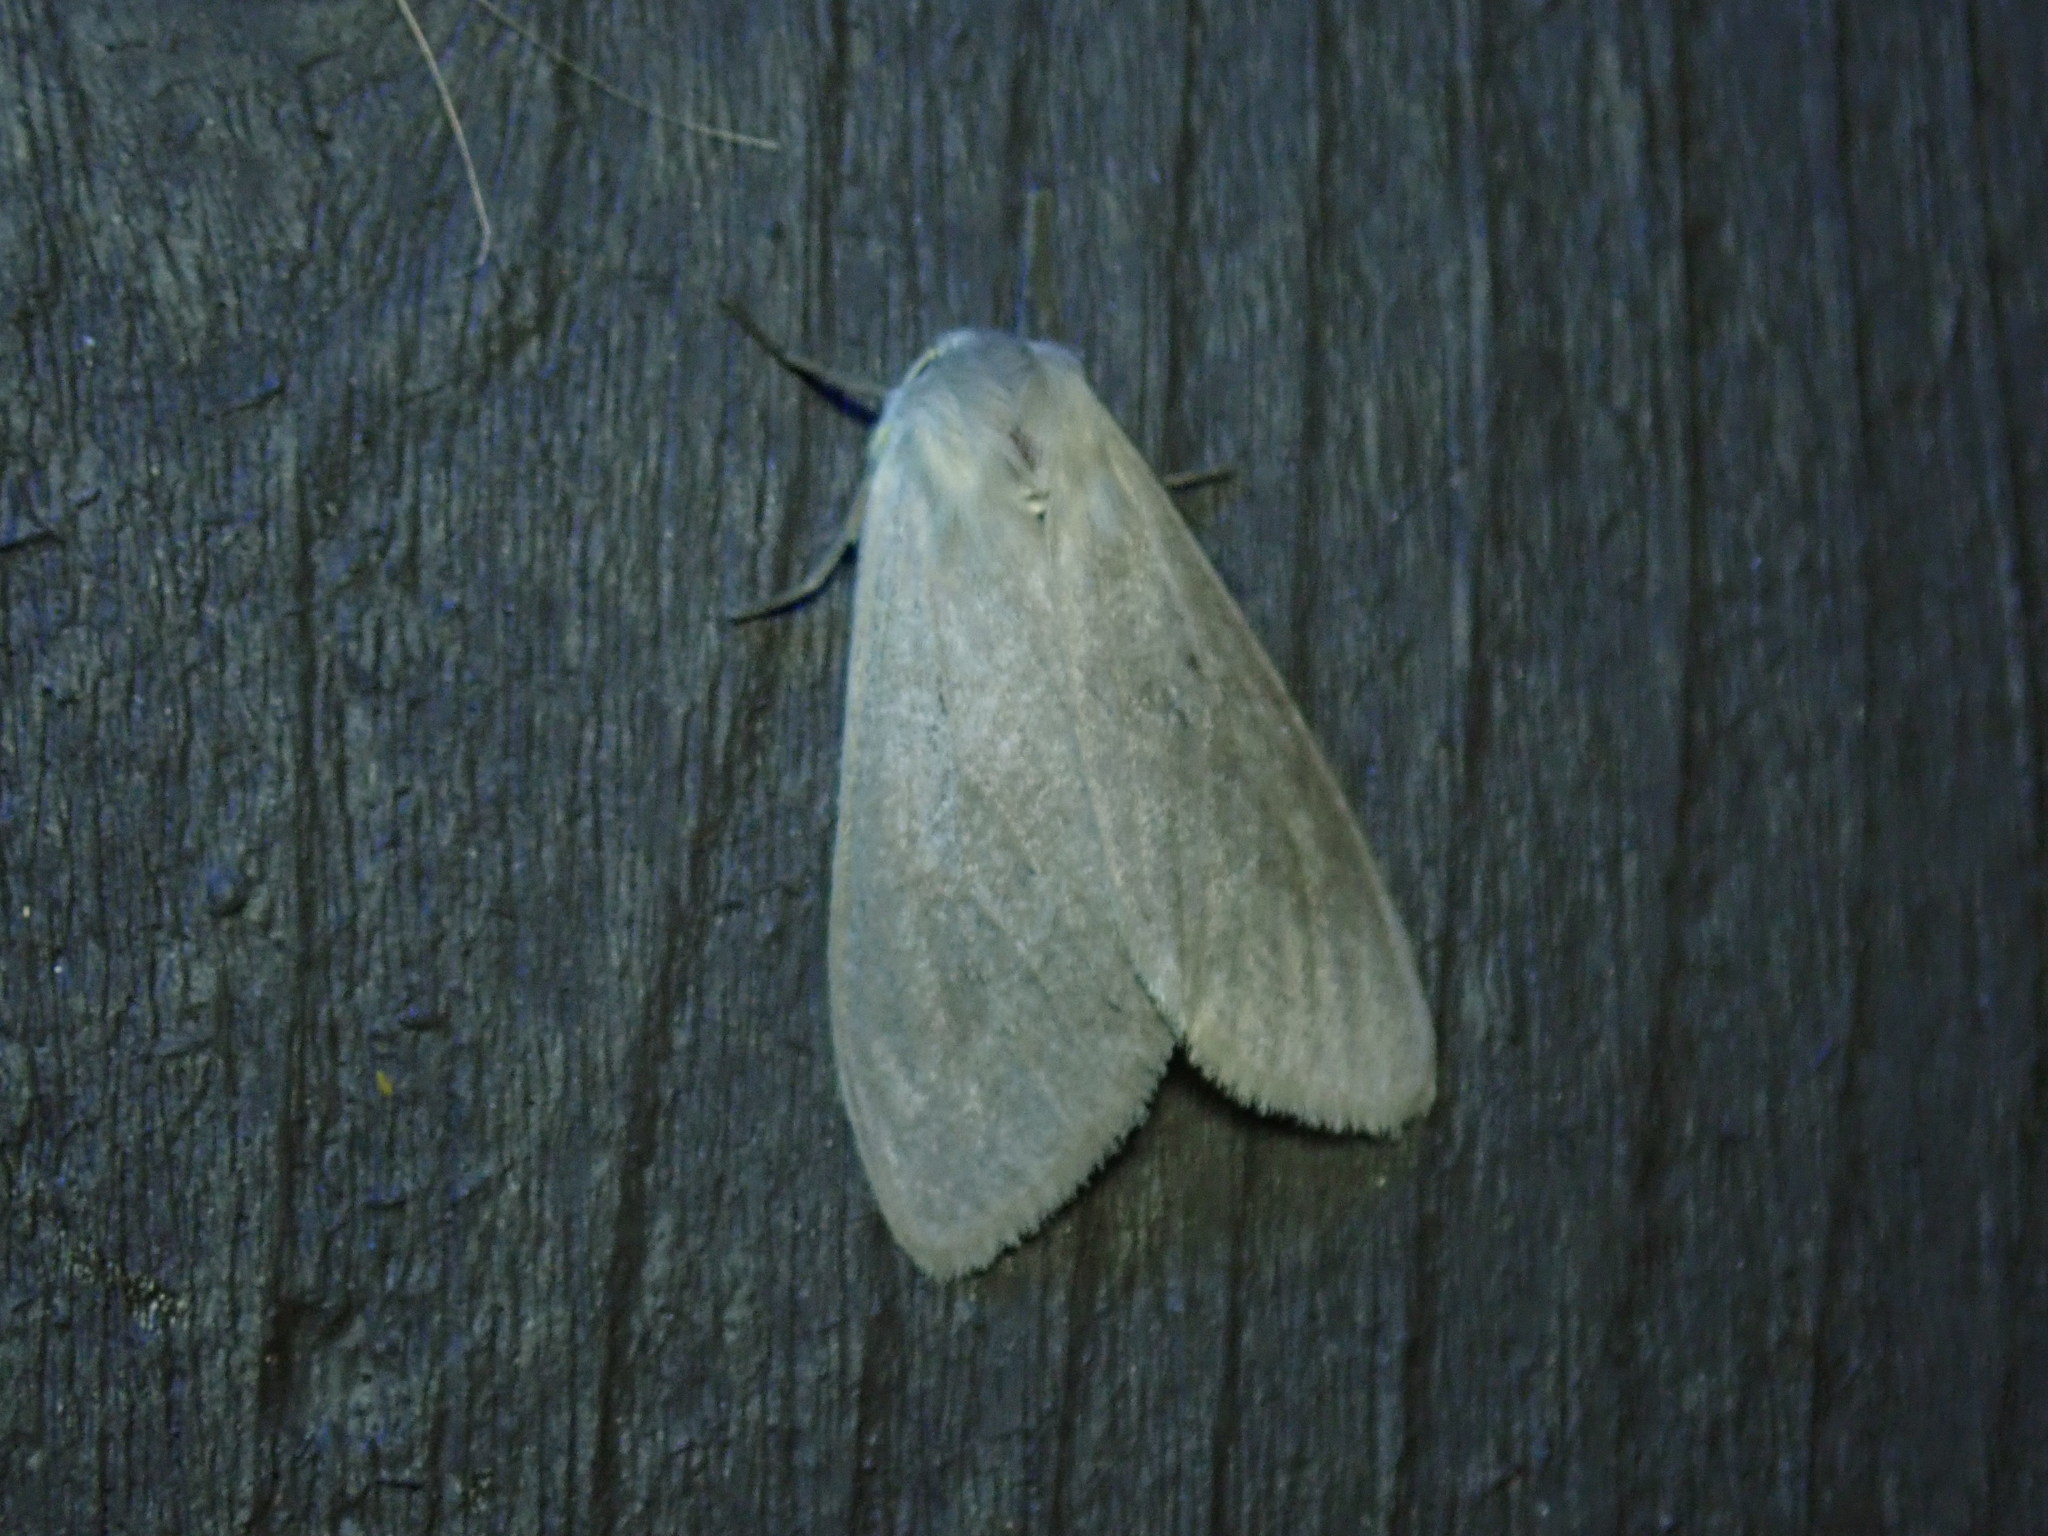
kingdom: Animalia
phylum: Arthropoda
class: Insecta
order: Lepidoptera
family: Erebidae
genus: Euchaetes
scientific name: Euchaetes egle
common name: Milkweed tussock moth
